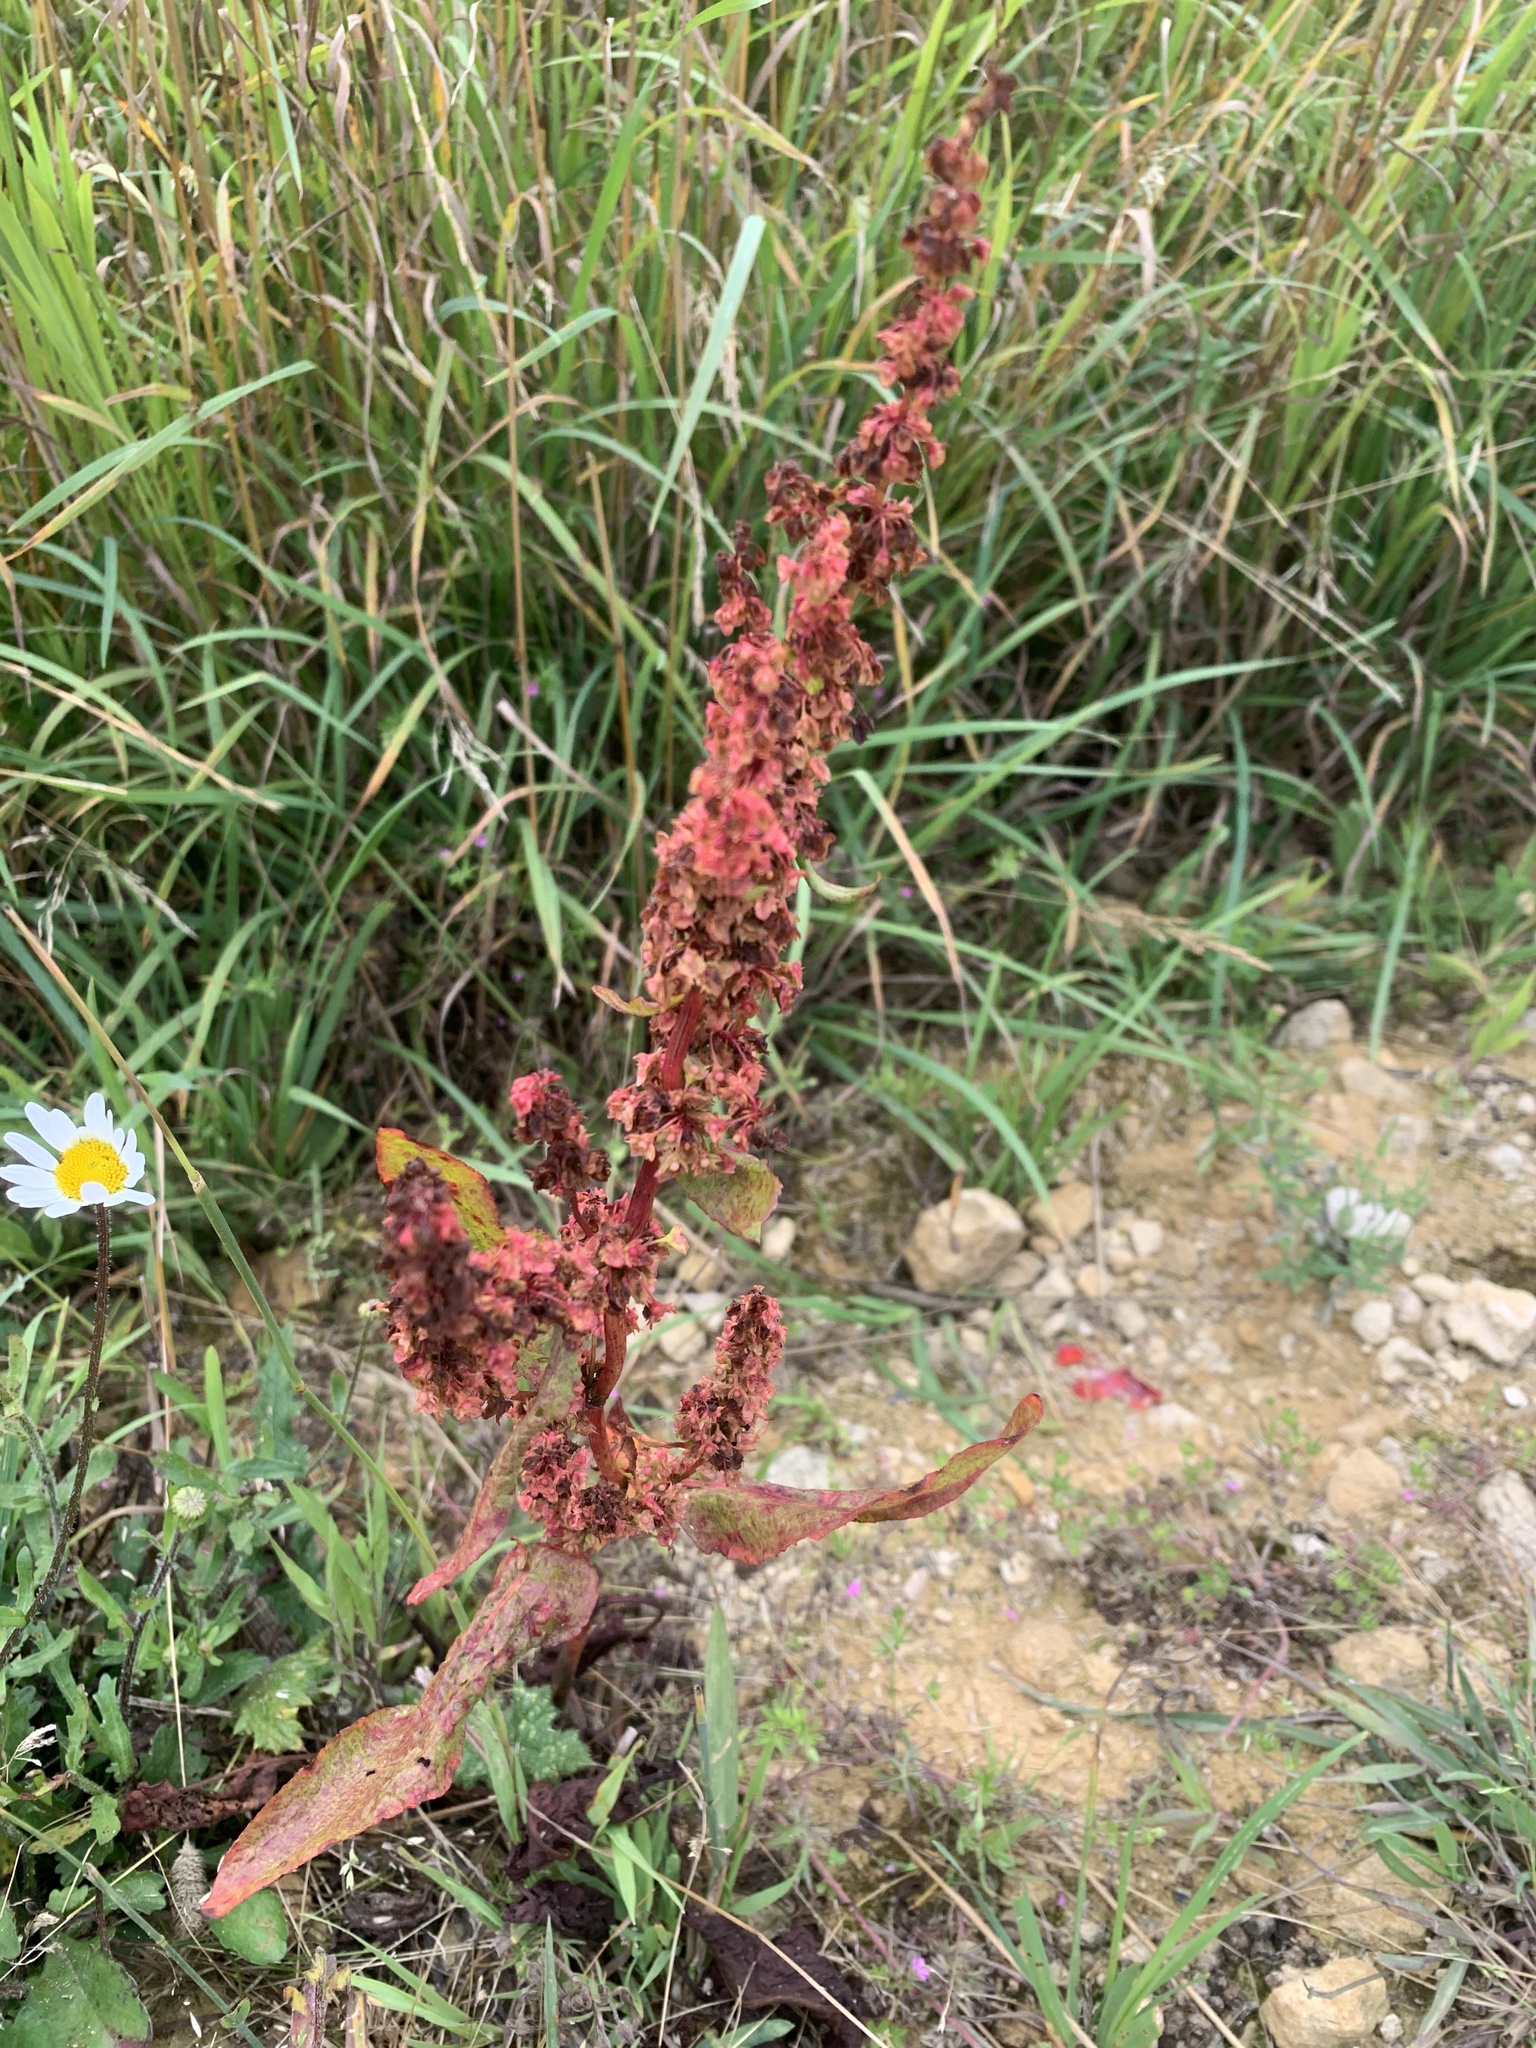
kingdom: Plantae
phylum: Tracheophyta
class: Magnoliopsida
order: Caryophyllales
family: Polygonaceae
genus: Rumex
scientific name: Rumex crispus
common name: Curled dock
